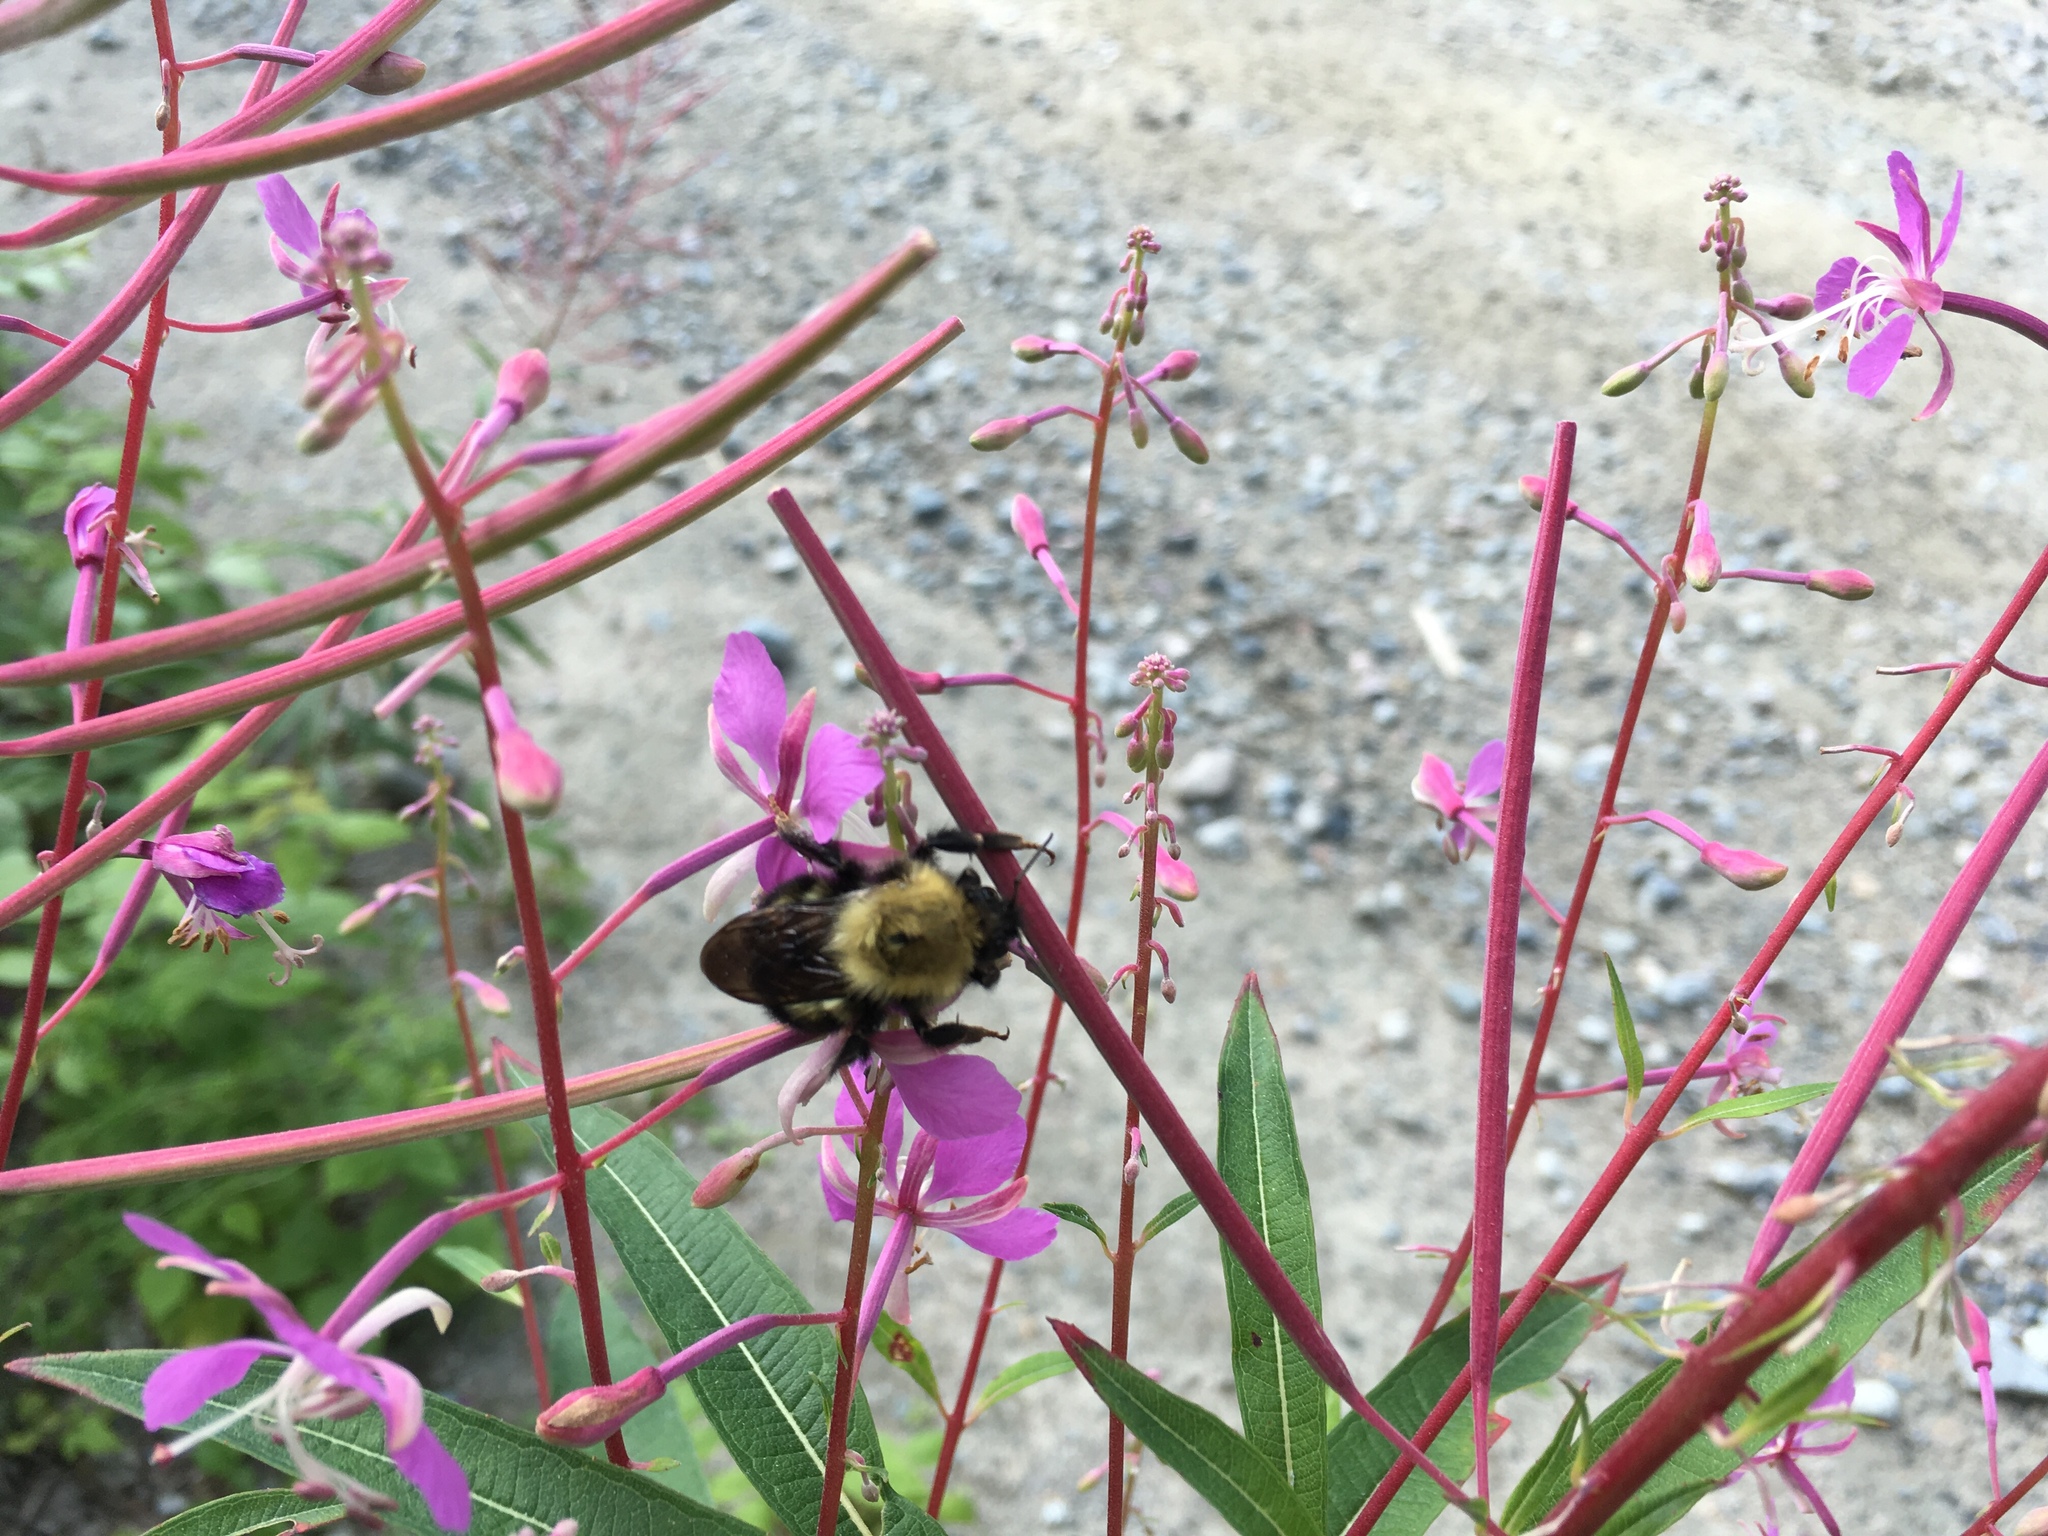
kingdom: Animalia
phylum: Arthropoda
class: Insecta
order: Hymenoptera
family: Apidae
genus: Bombus
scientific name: Bombus perplexus
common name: Confusing bumble bee
